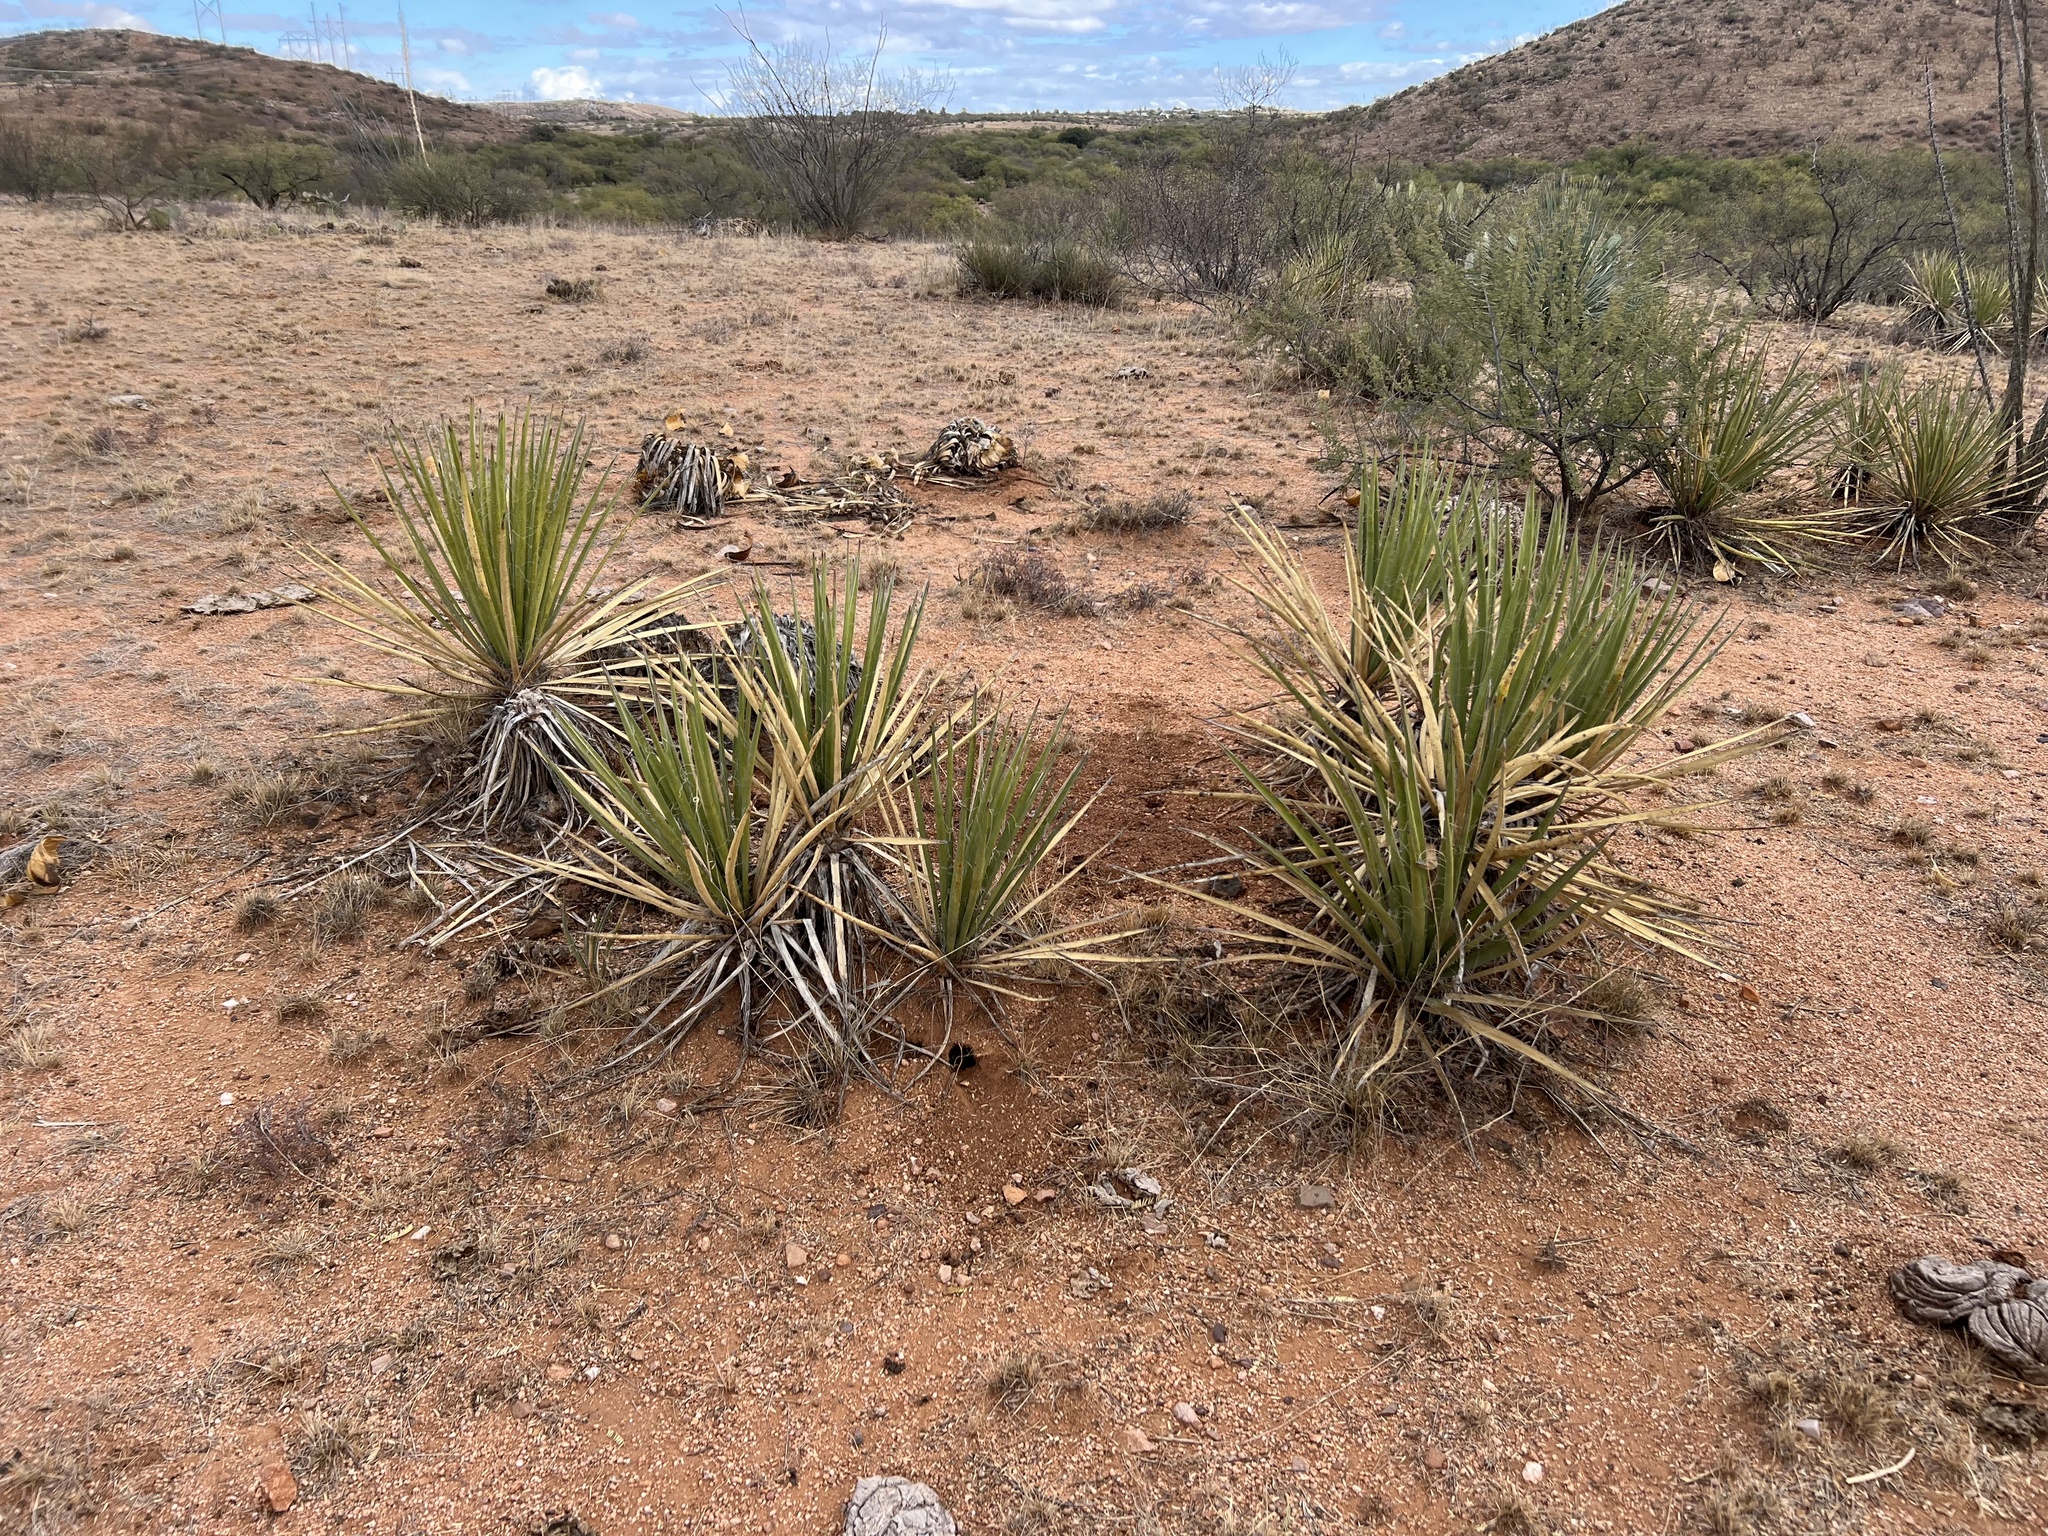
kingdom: Plantae
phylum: Tracheophyta
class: Liliopsida
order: Asparagales
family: Asparagaceae
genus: Yucca
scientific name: Yucca baccata
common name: Banana yucca
